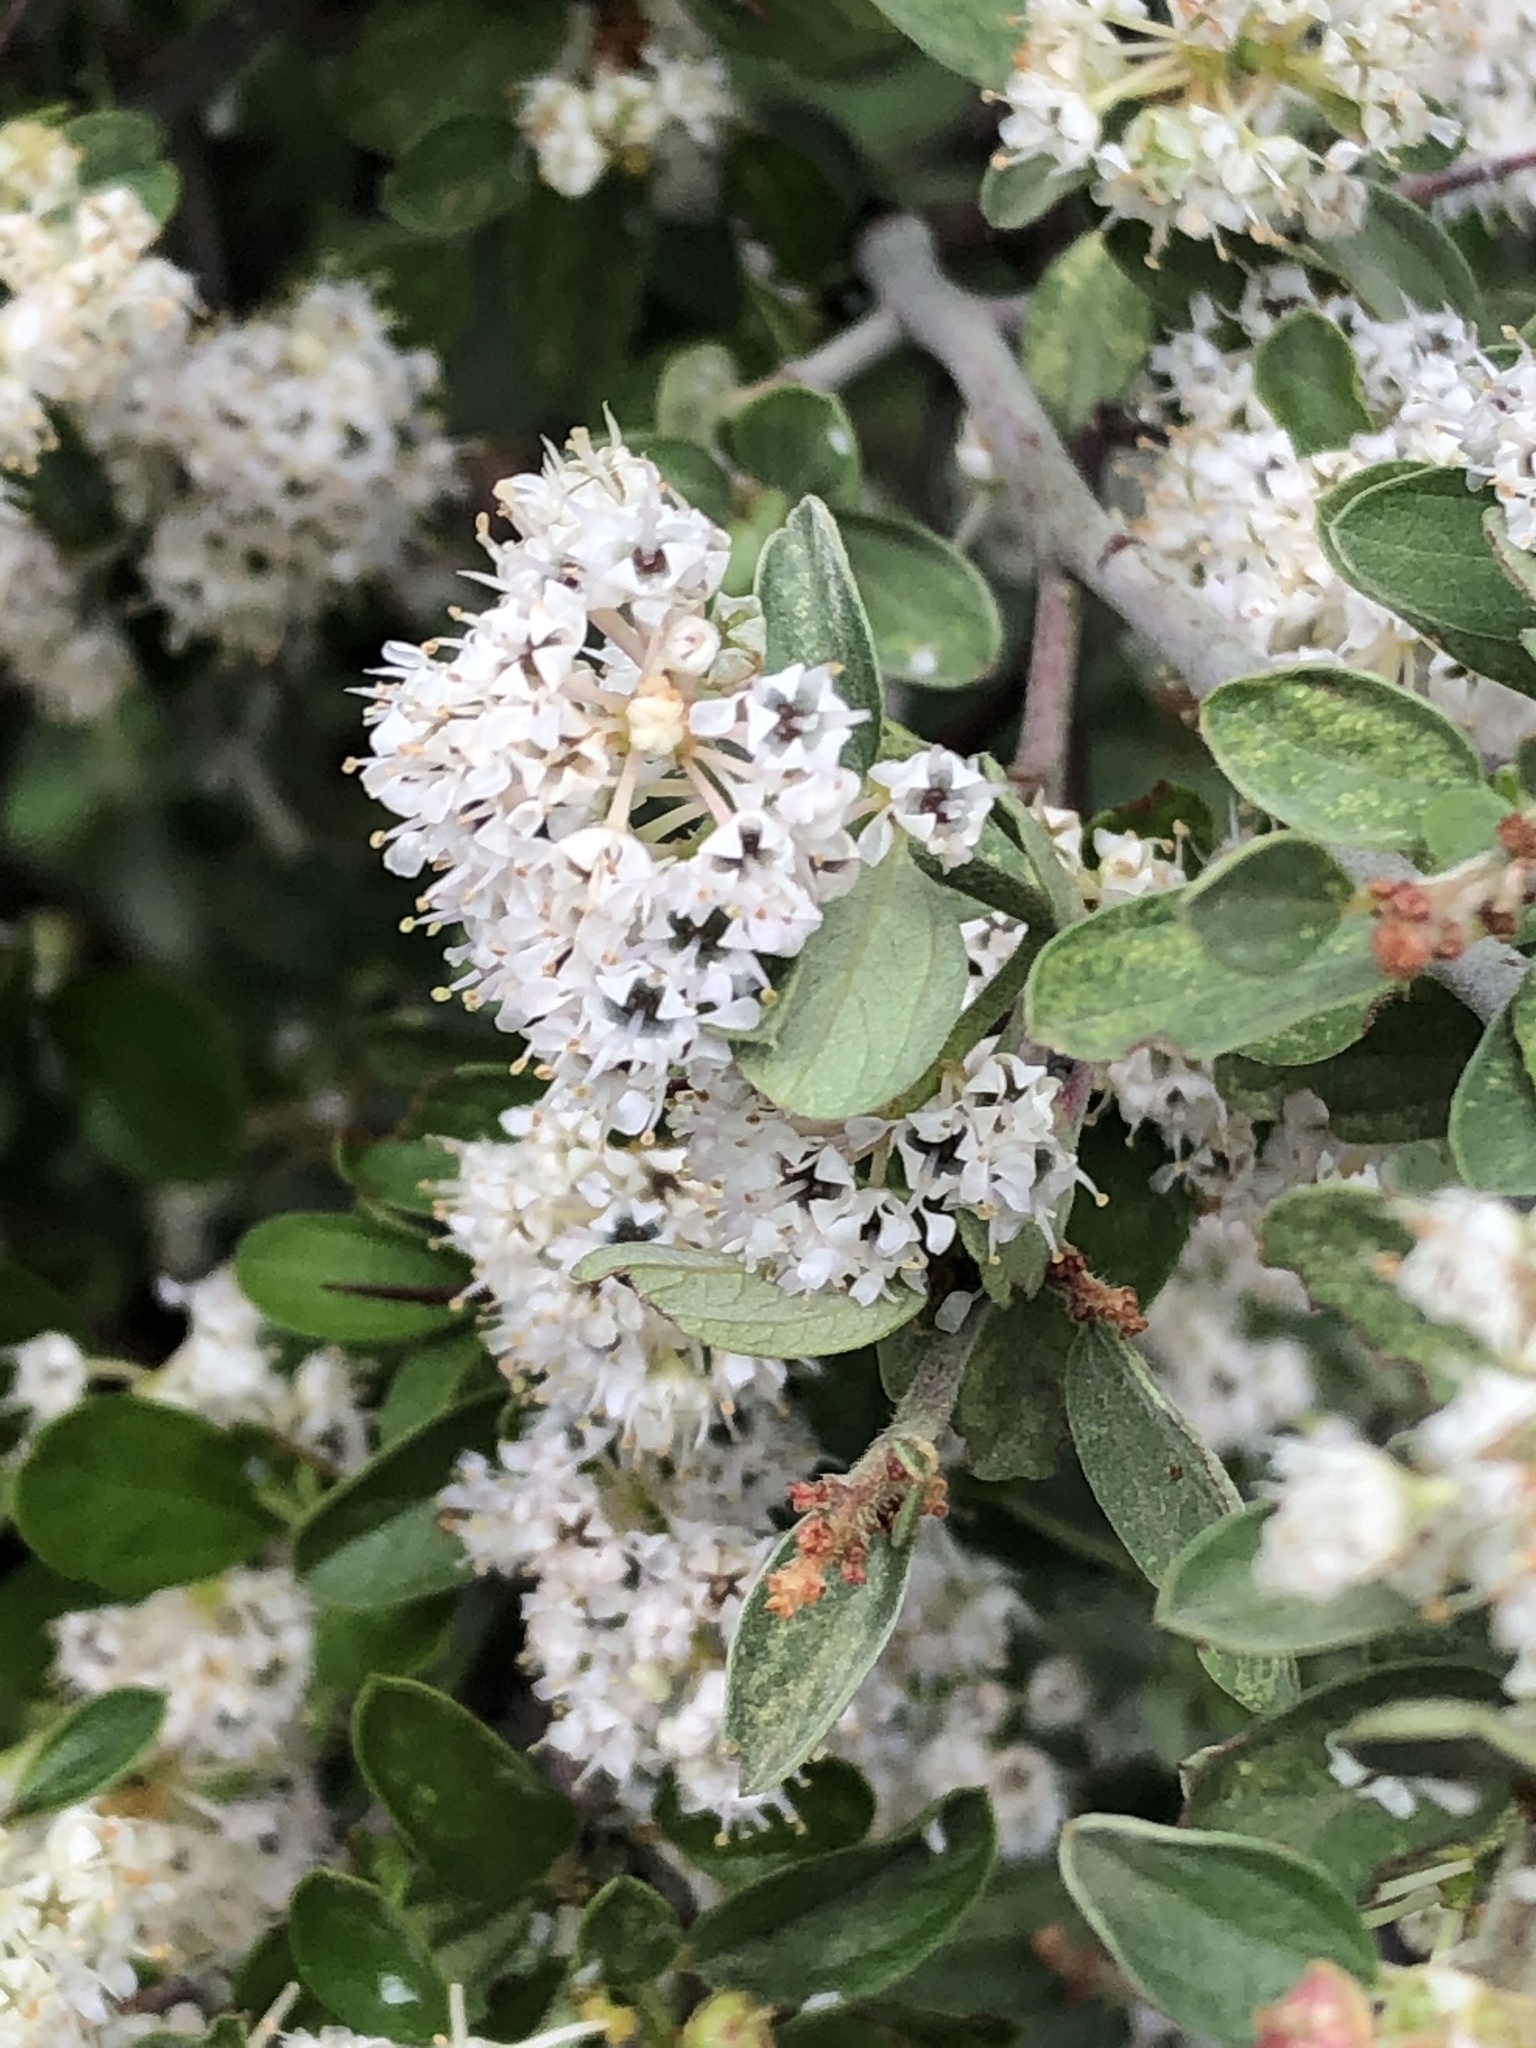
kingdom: Plantae
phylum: Tracheophyta
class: Magnoliopsida
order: Rosales
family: Rhamnaceae
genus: Ceanothus
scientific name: Ceanothus fendleri
